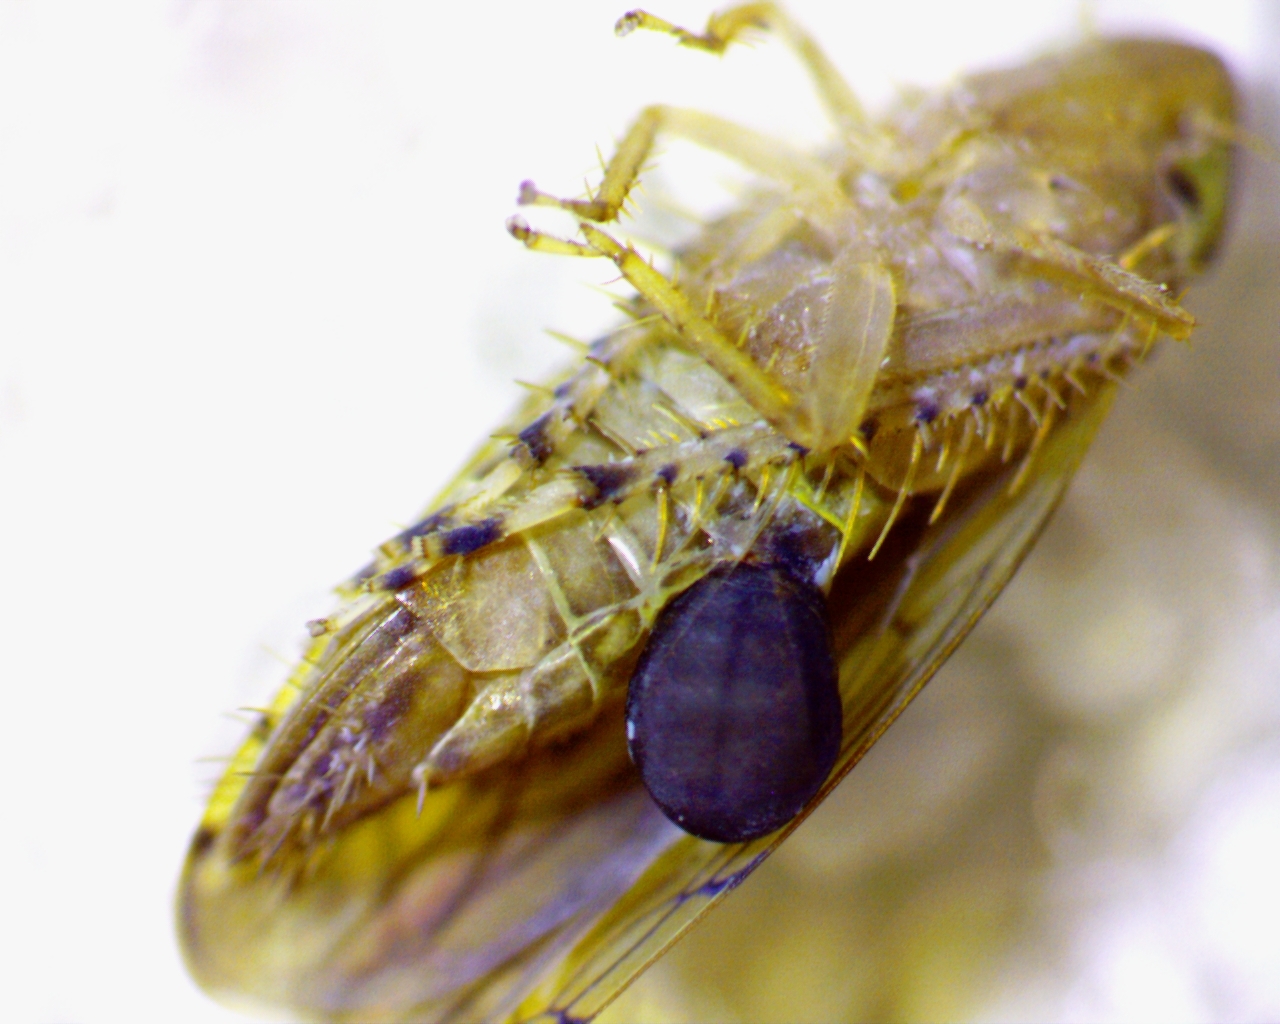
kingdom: Animalia
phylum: Arthropoda
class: Insecta
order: Hemiptera
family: Cicadellidae
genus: Osbornellus
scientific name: Osbornellus rotundus
